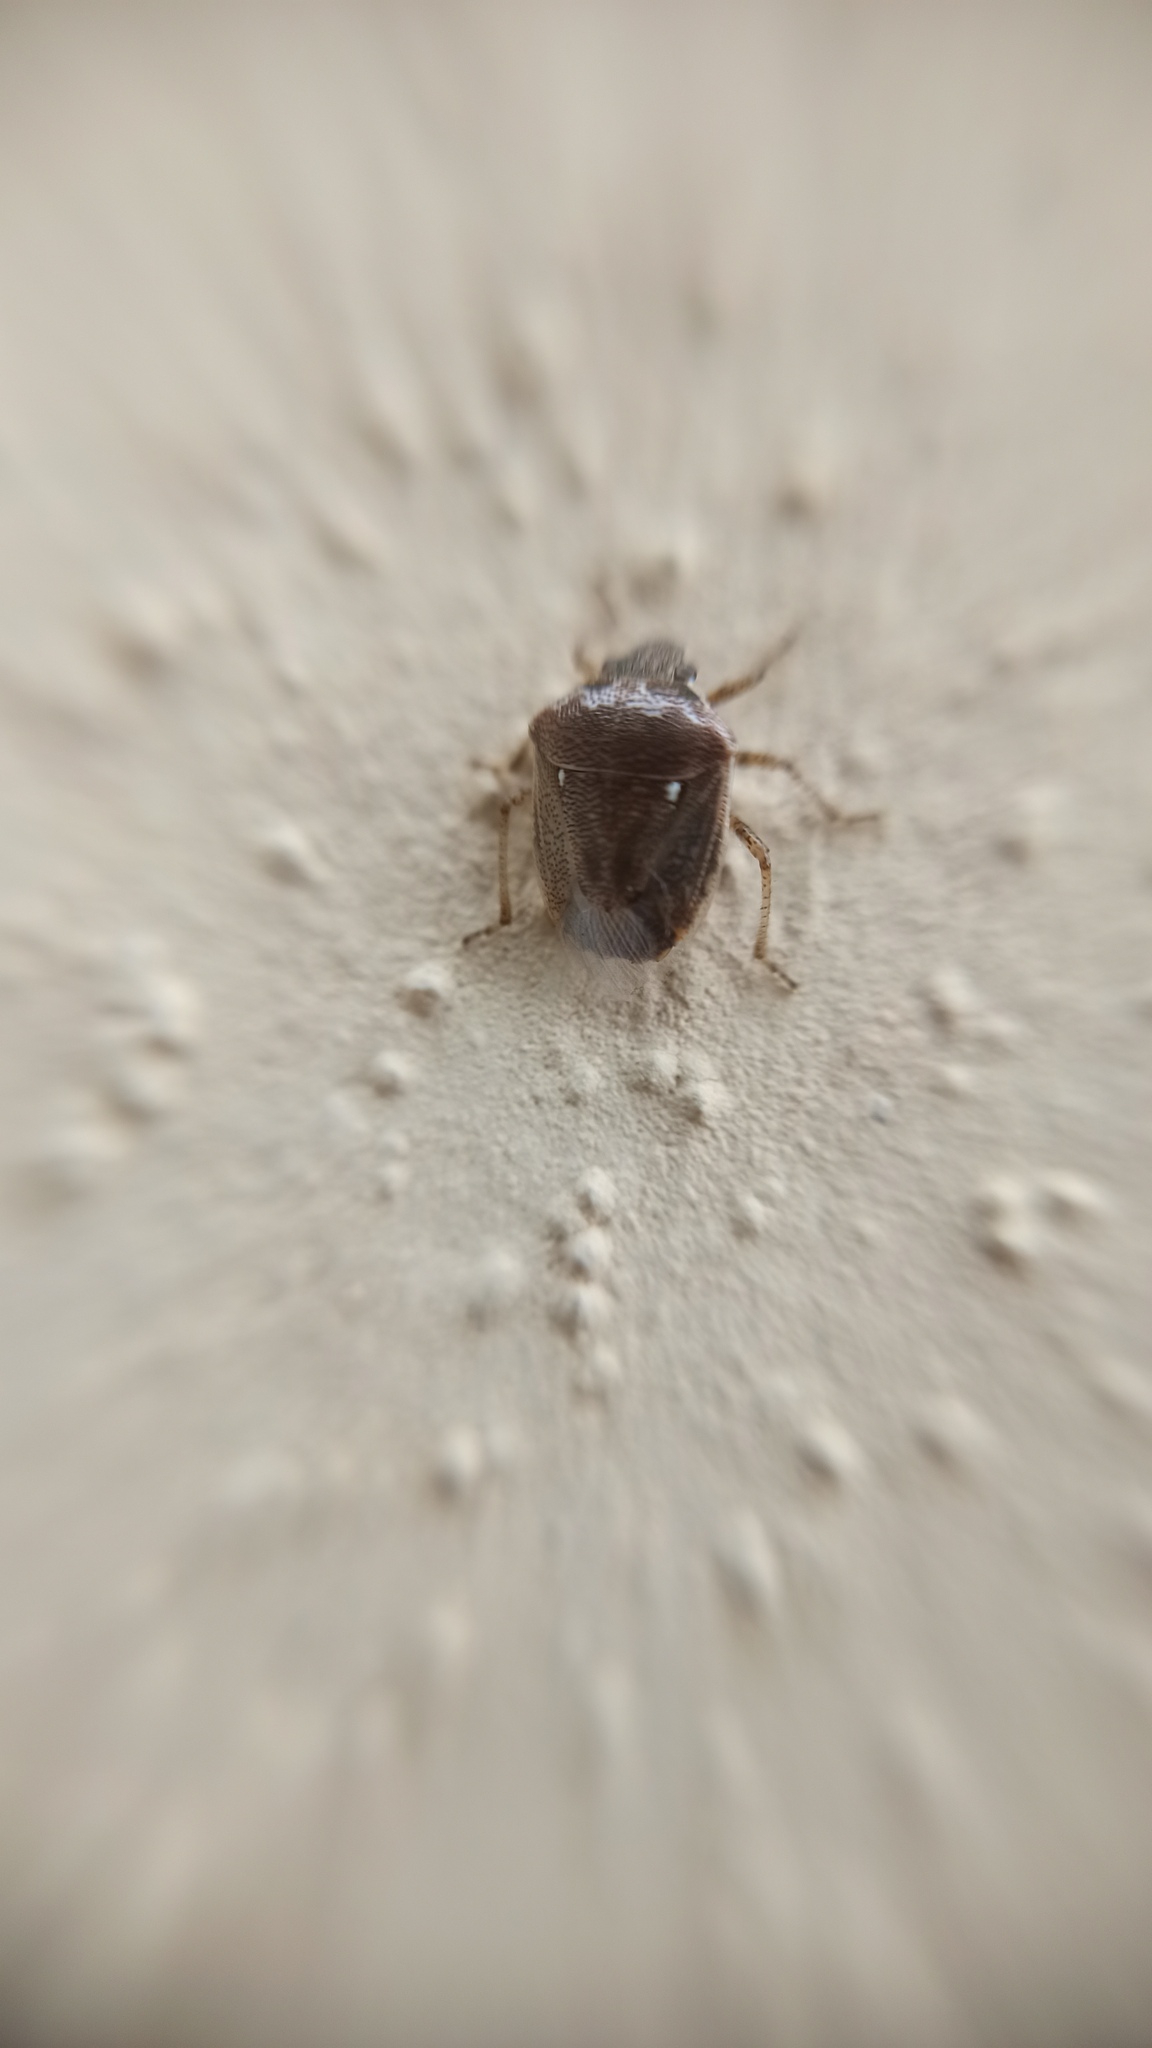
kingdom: Animalia
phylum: Arthropoda
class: Insecta
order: Hemiptera
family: Pentatomidae
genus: Eysarcoris
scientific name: Eysarcoris ventralis
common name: White-spotted stink bug
